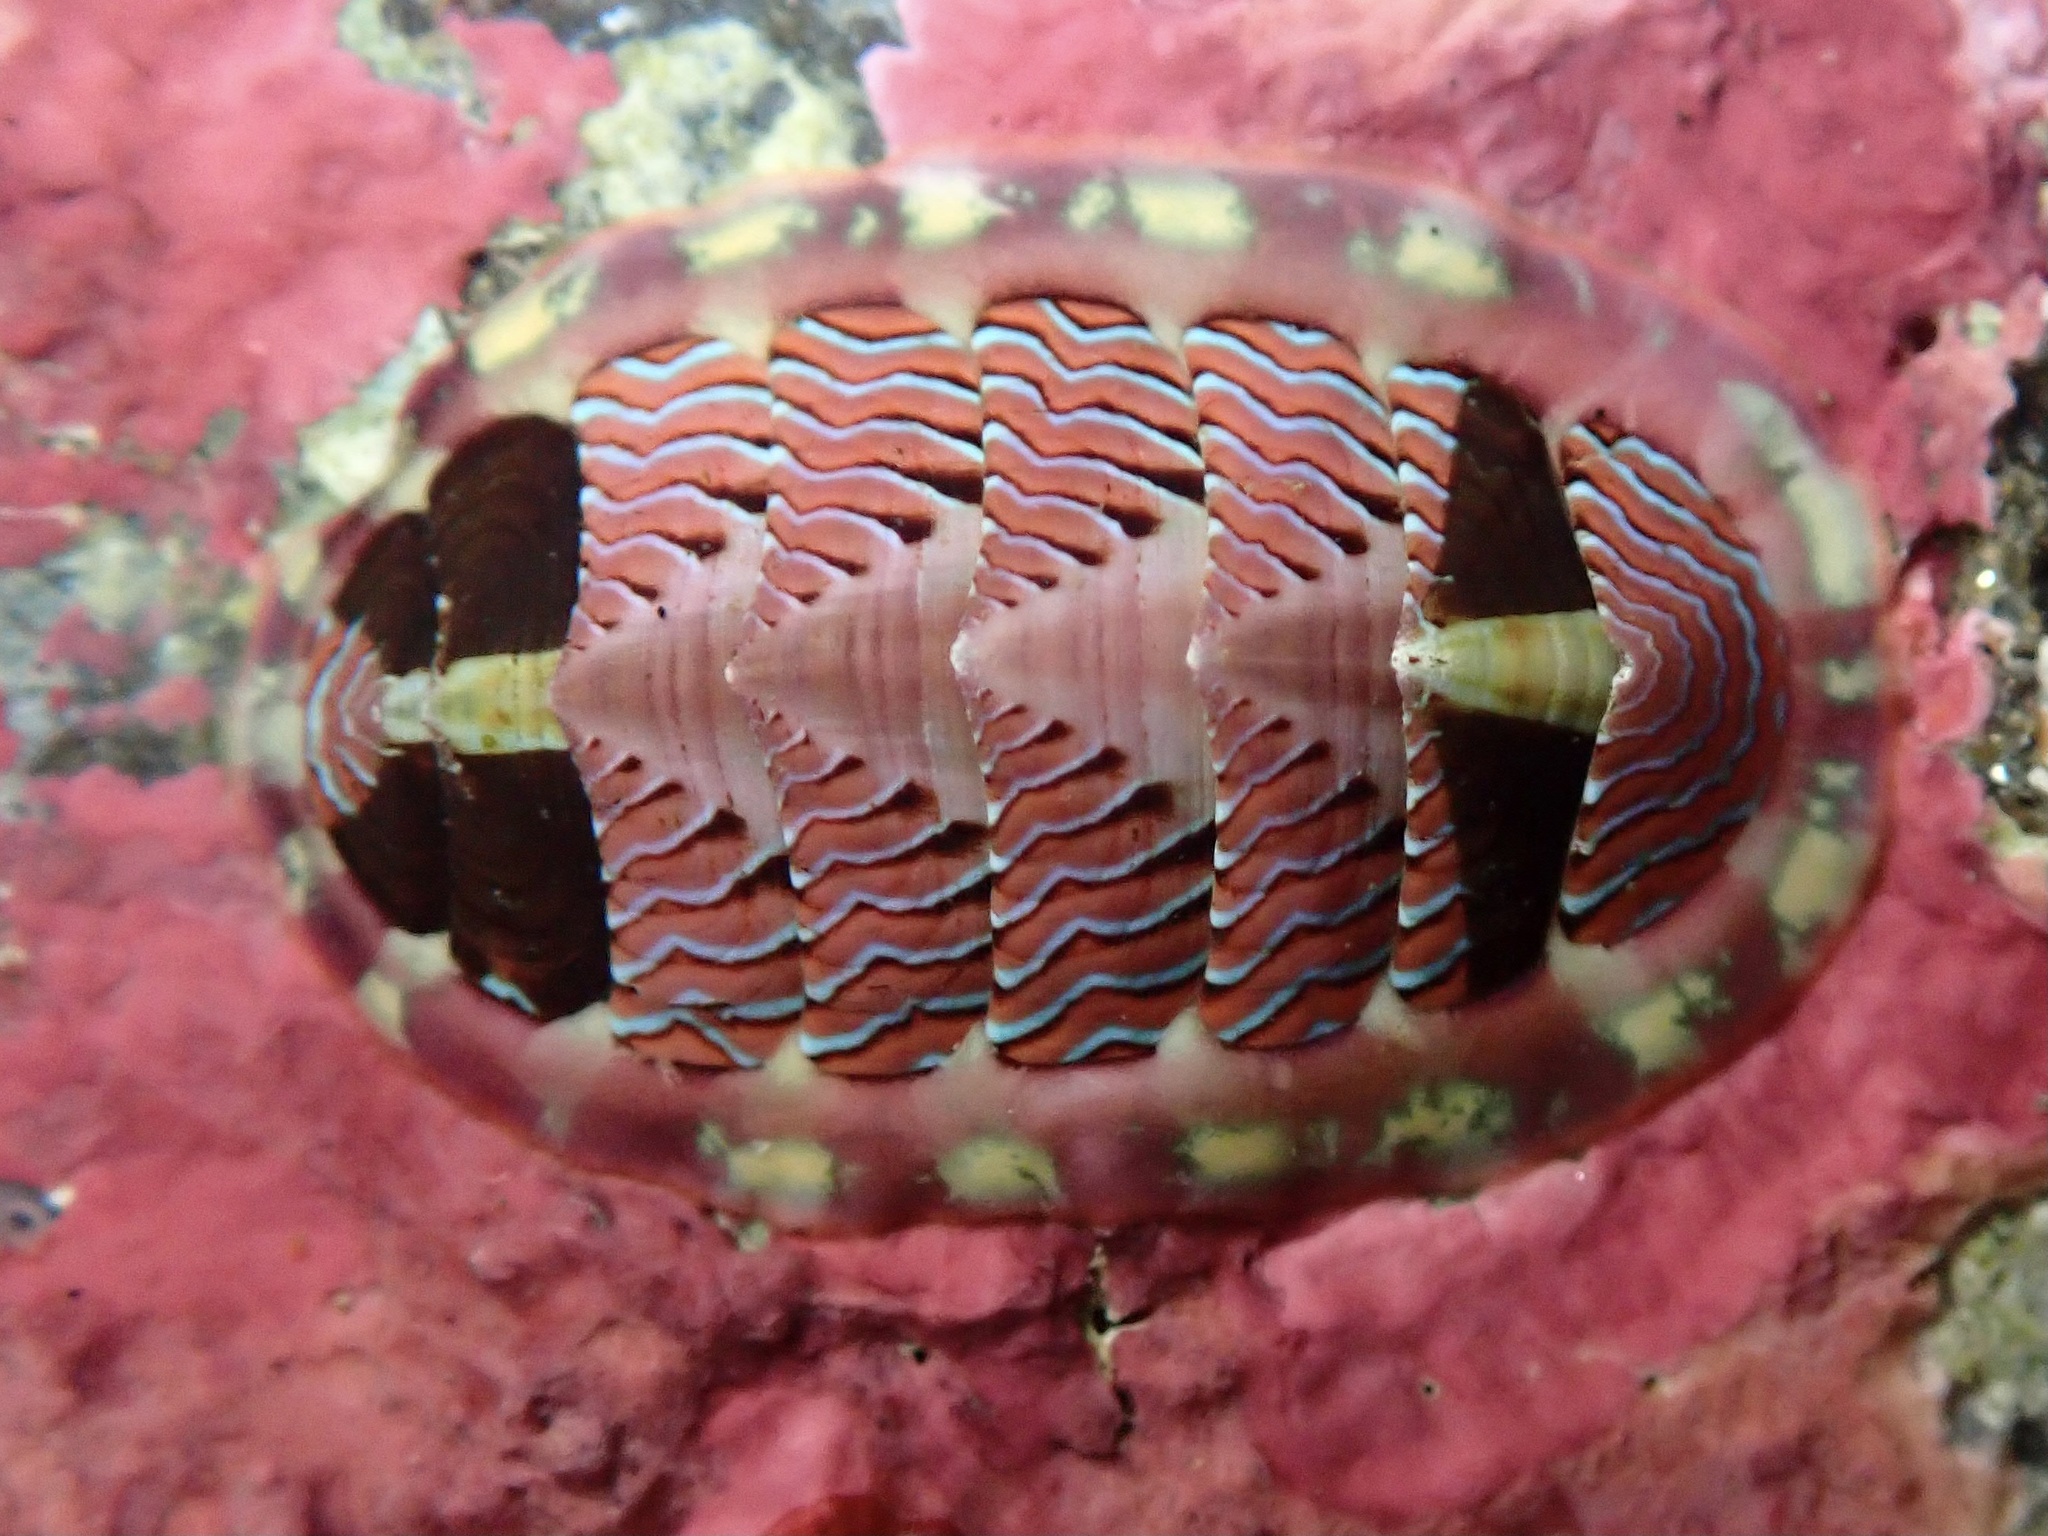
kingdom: Animalia
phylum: Mollusca
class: Polyplacophora
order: Chitonida
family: Tonicellidae
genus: Tonicella
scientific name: Tonicella lineata
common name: Lined chiton
